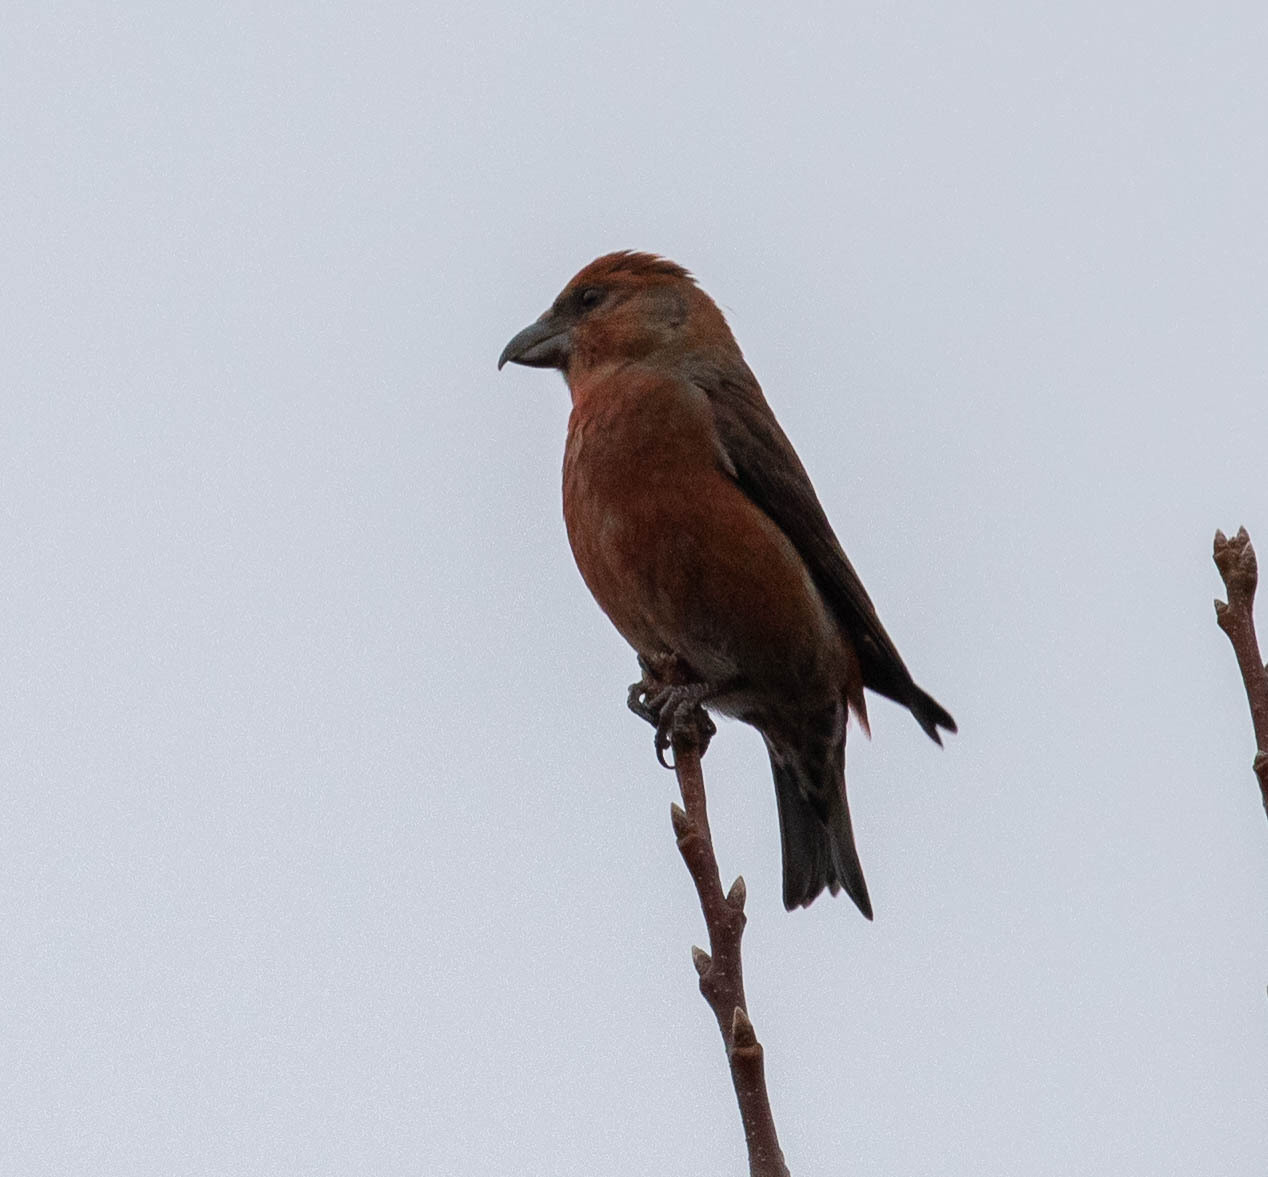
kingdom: Animalia
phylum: Chordata
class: Aves
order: Passeriformes
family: Fringillidae
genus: Loxia
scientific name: Loxia curvirostra
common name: Red crossbill
